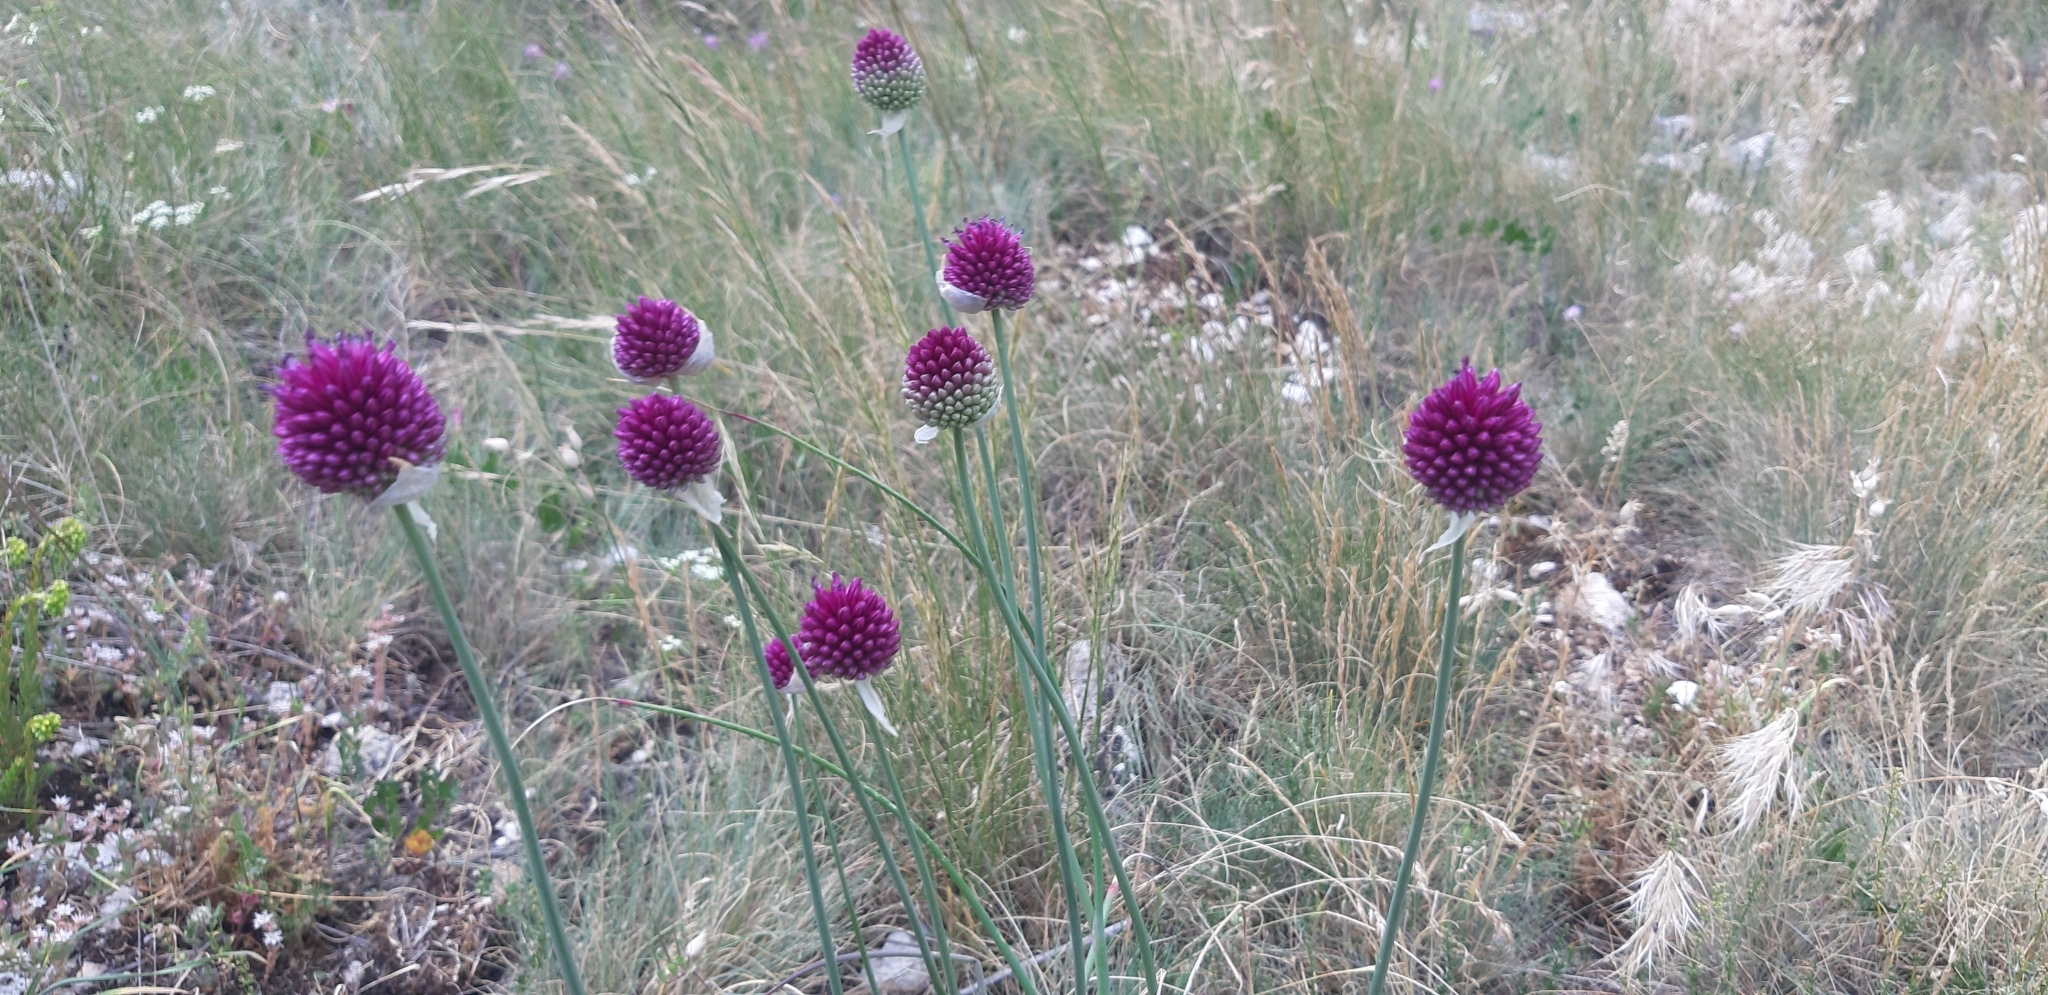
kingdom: Plantae
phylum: Tracheophyta
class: Liliopsida
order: Asparagales
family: Amaryllidaceae
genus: Allium
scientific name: Allium sphaerocephalon
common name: Round-headed leek
